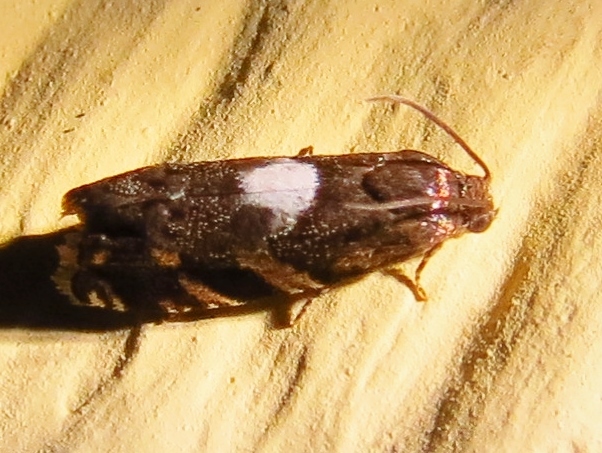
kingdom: Animalia
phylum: Arthropoda
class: Insecta
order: Lepidoptera
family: Tortricidae
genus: Cydia
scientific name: Cydia albimaculana
